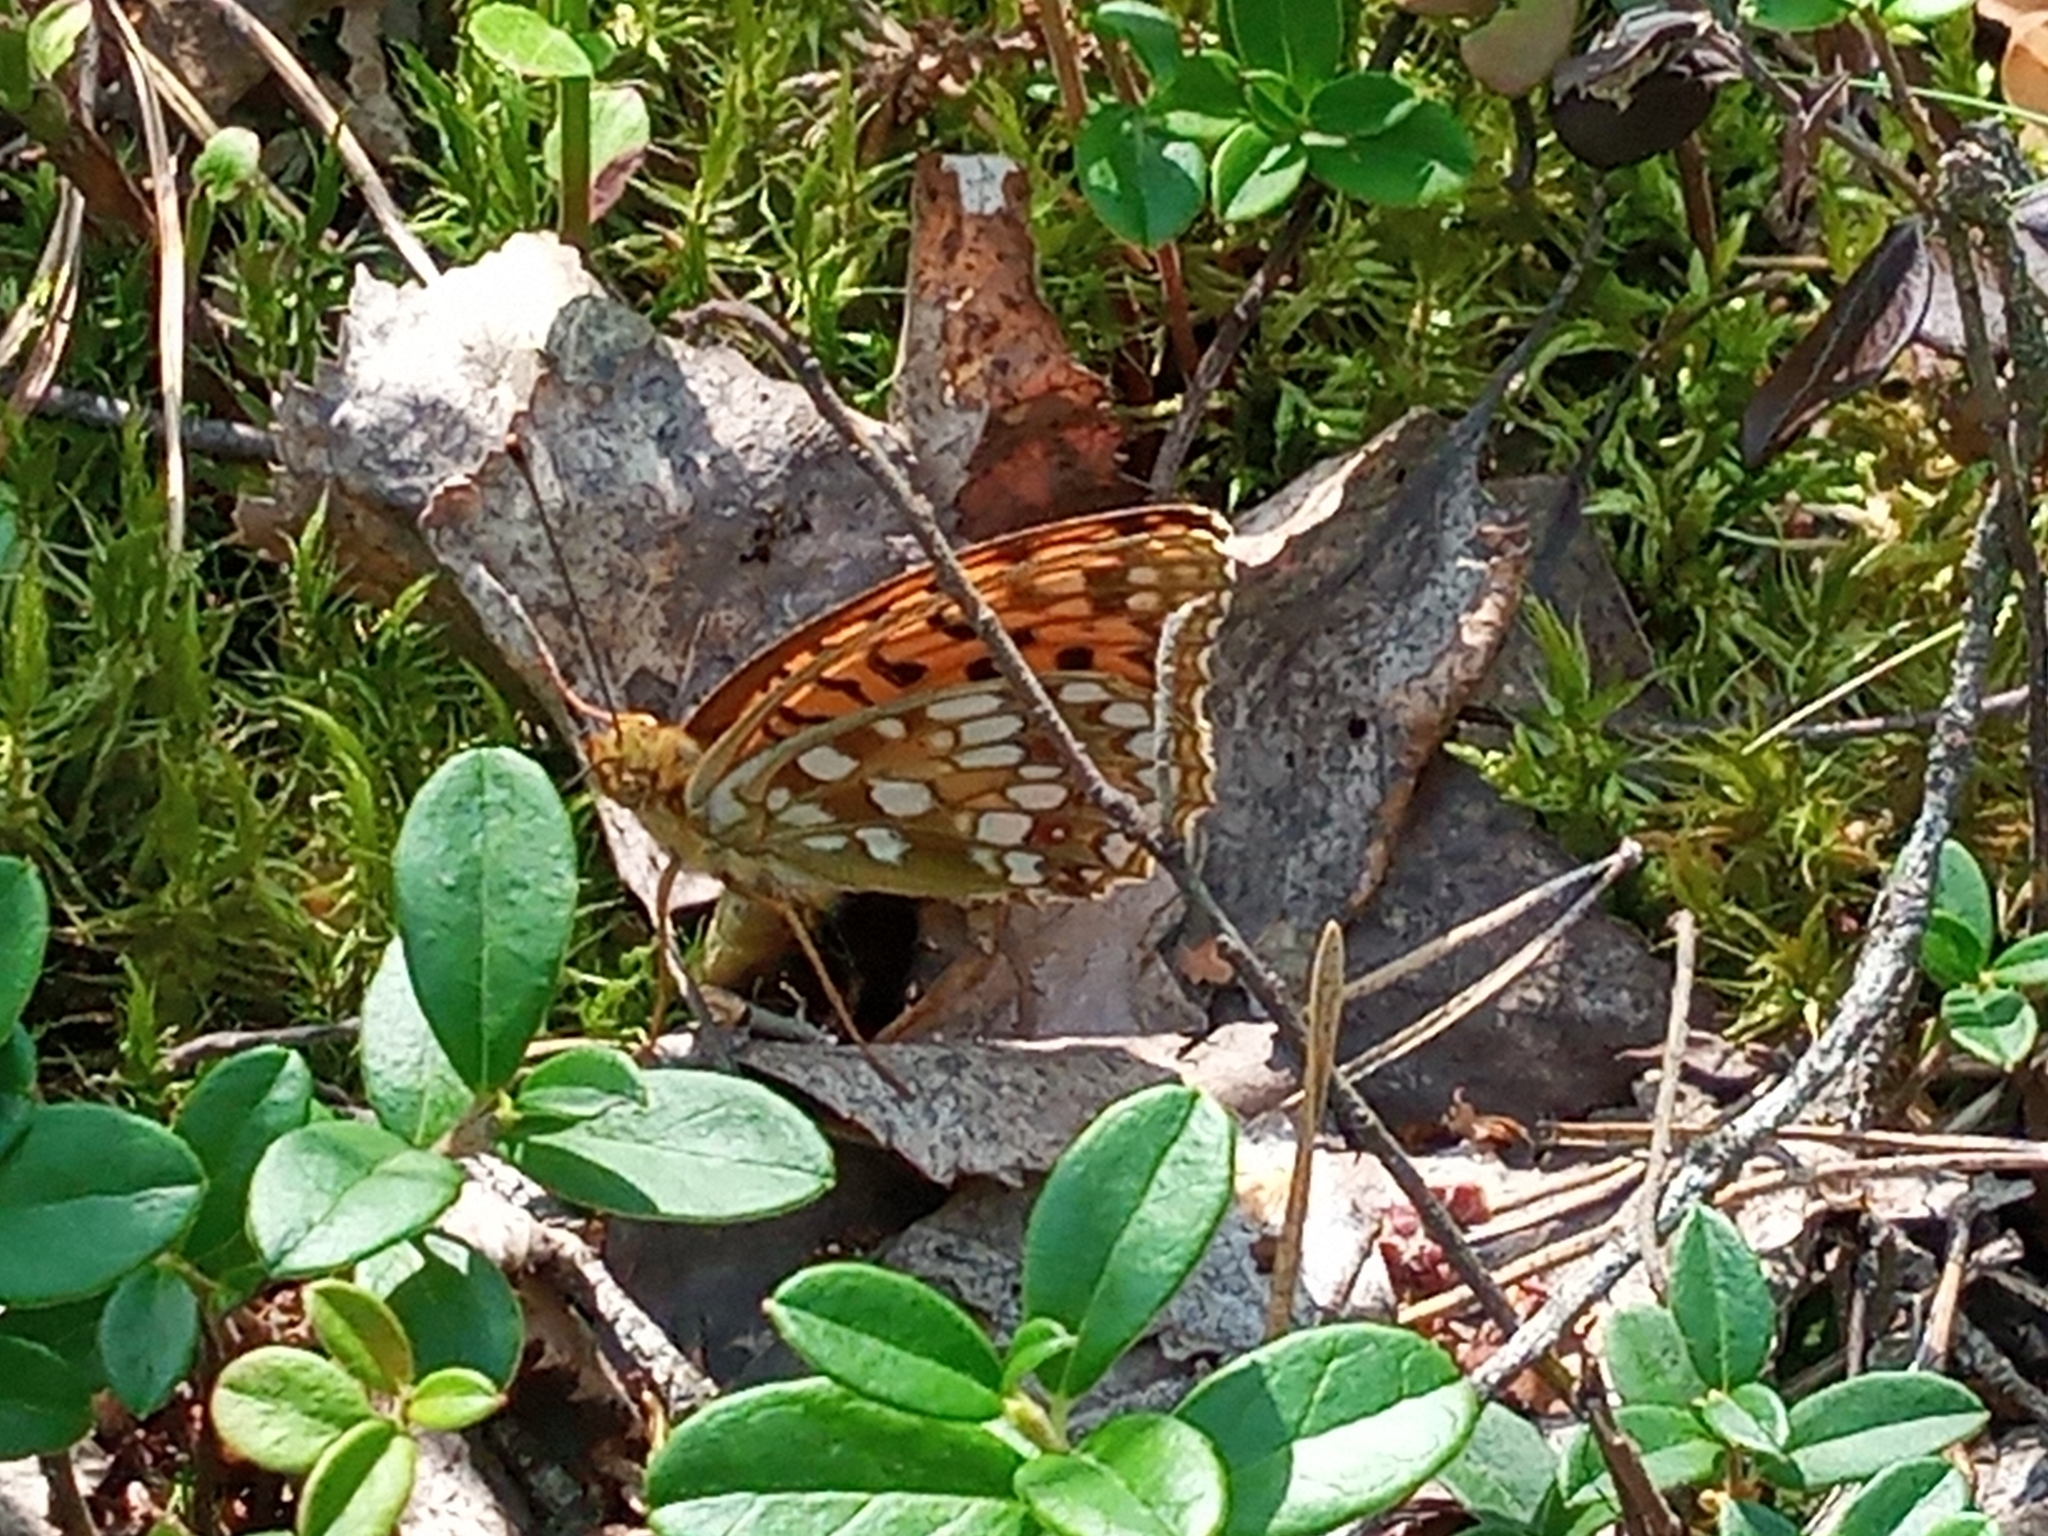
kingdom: Animalia
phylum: Arthropoda
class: Insecta
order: Lepidoptera
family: Nymphalidae
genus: Fabriciana
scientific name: Fabriciana adippe
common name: High brown fritillary
